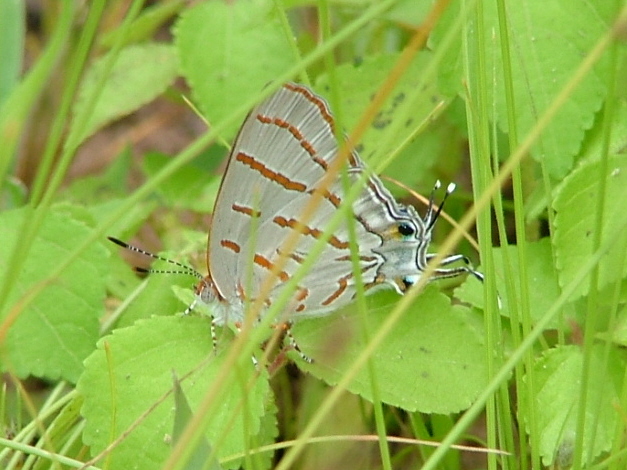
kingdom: Animalia
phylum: Arthropoda
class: Insecta
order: Lepidoptera
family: Lycaenidae
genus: Hemiolaus
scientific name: Hemiolaus caeculus
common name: Azure hairstreak
